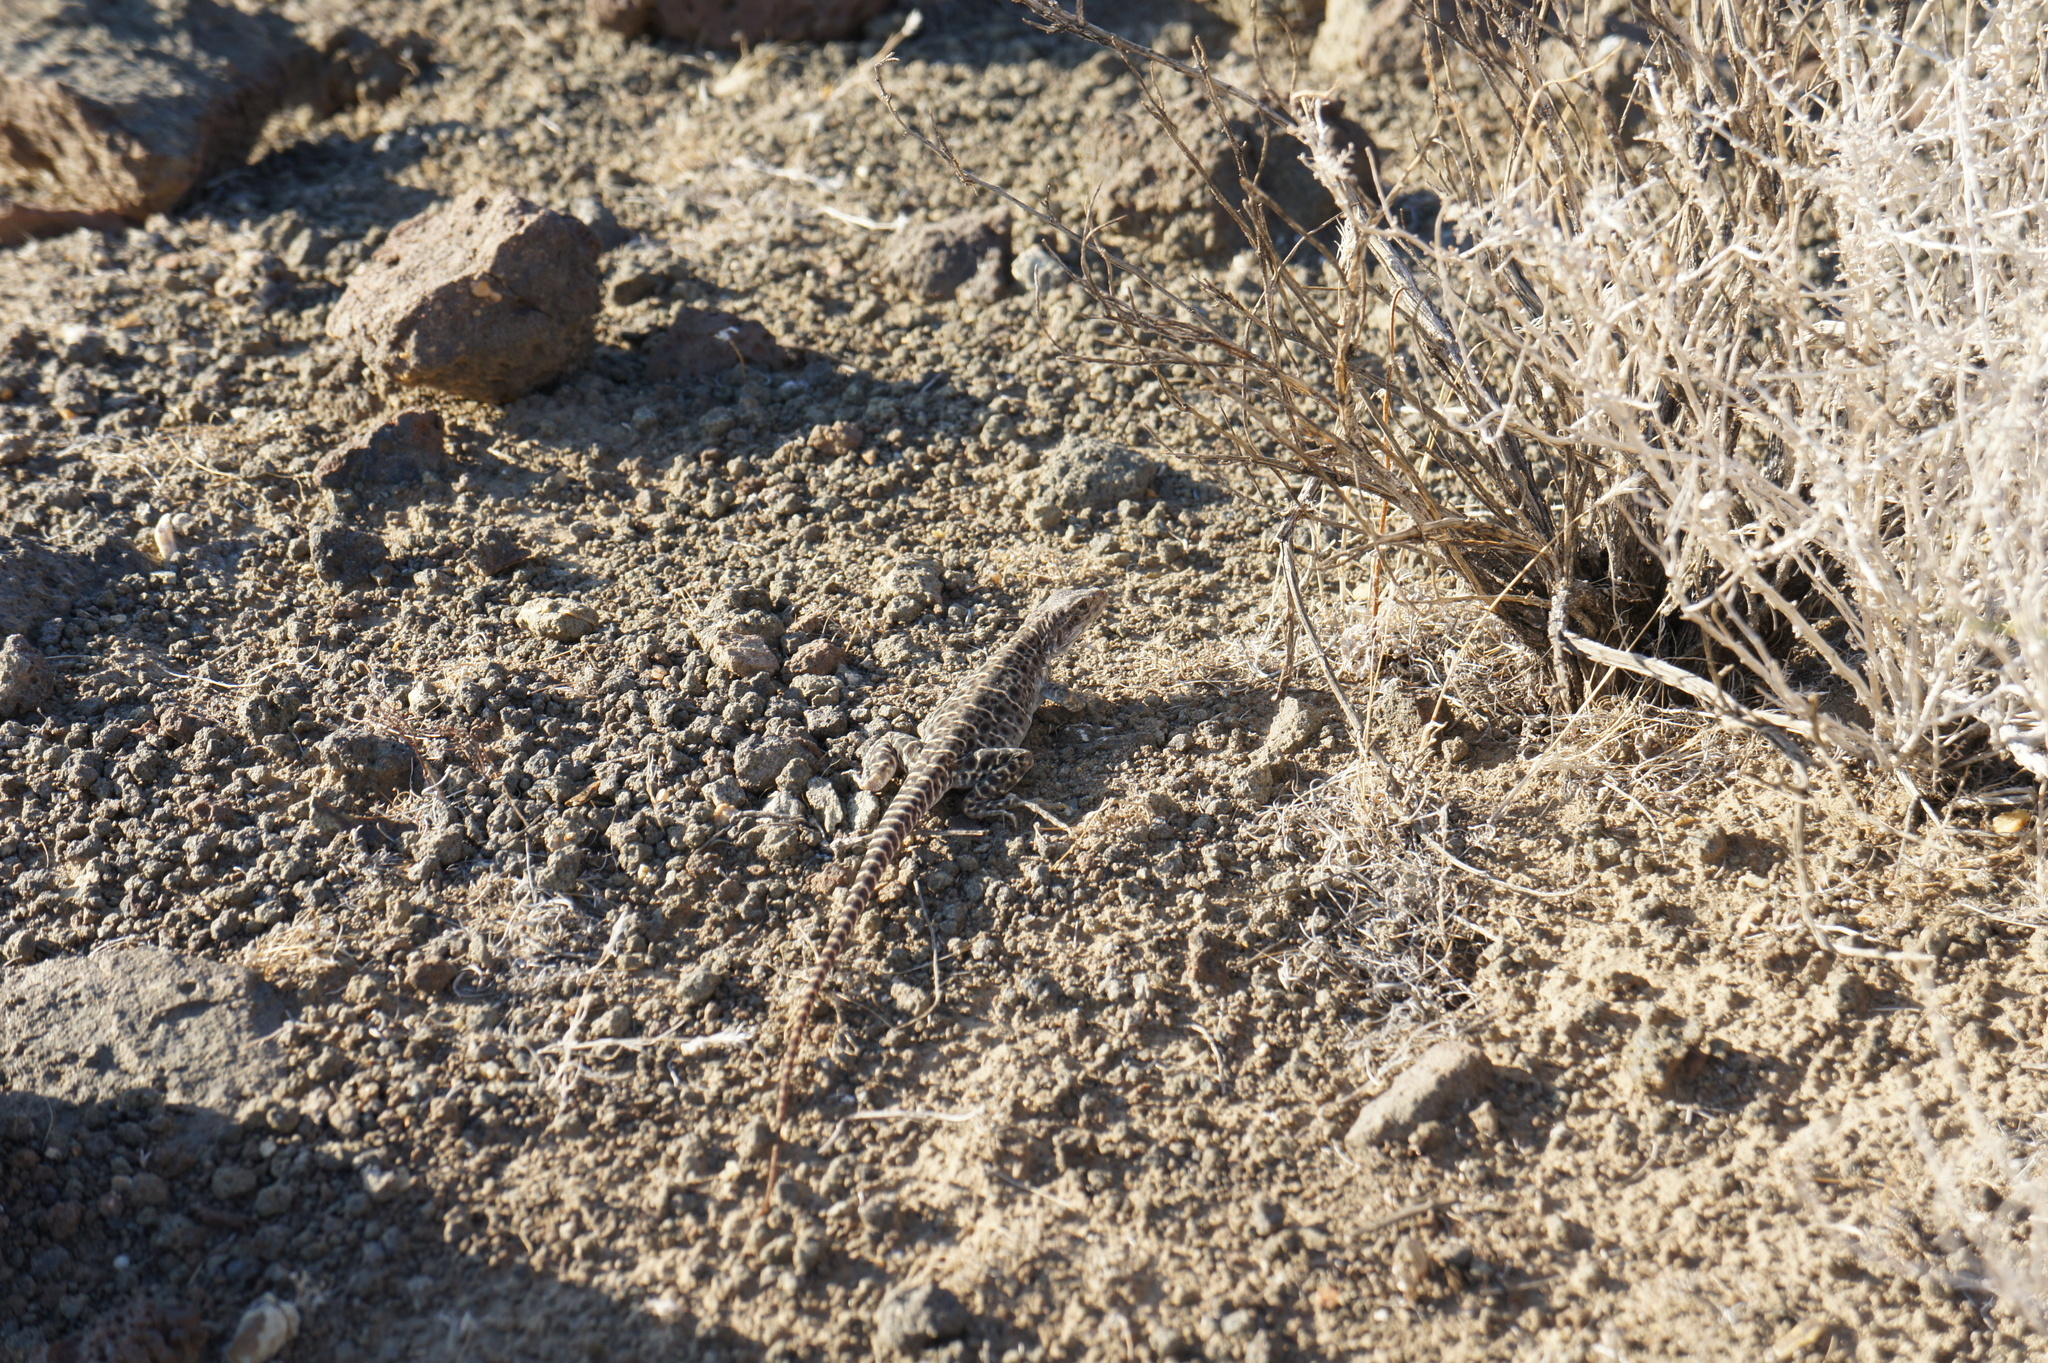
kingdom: Animalia
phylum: Chordata
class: Squamata
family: Crotaphytidae
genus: Gambelia
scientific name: Gambelia wislizenii
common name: Longnose leopard lizard
